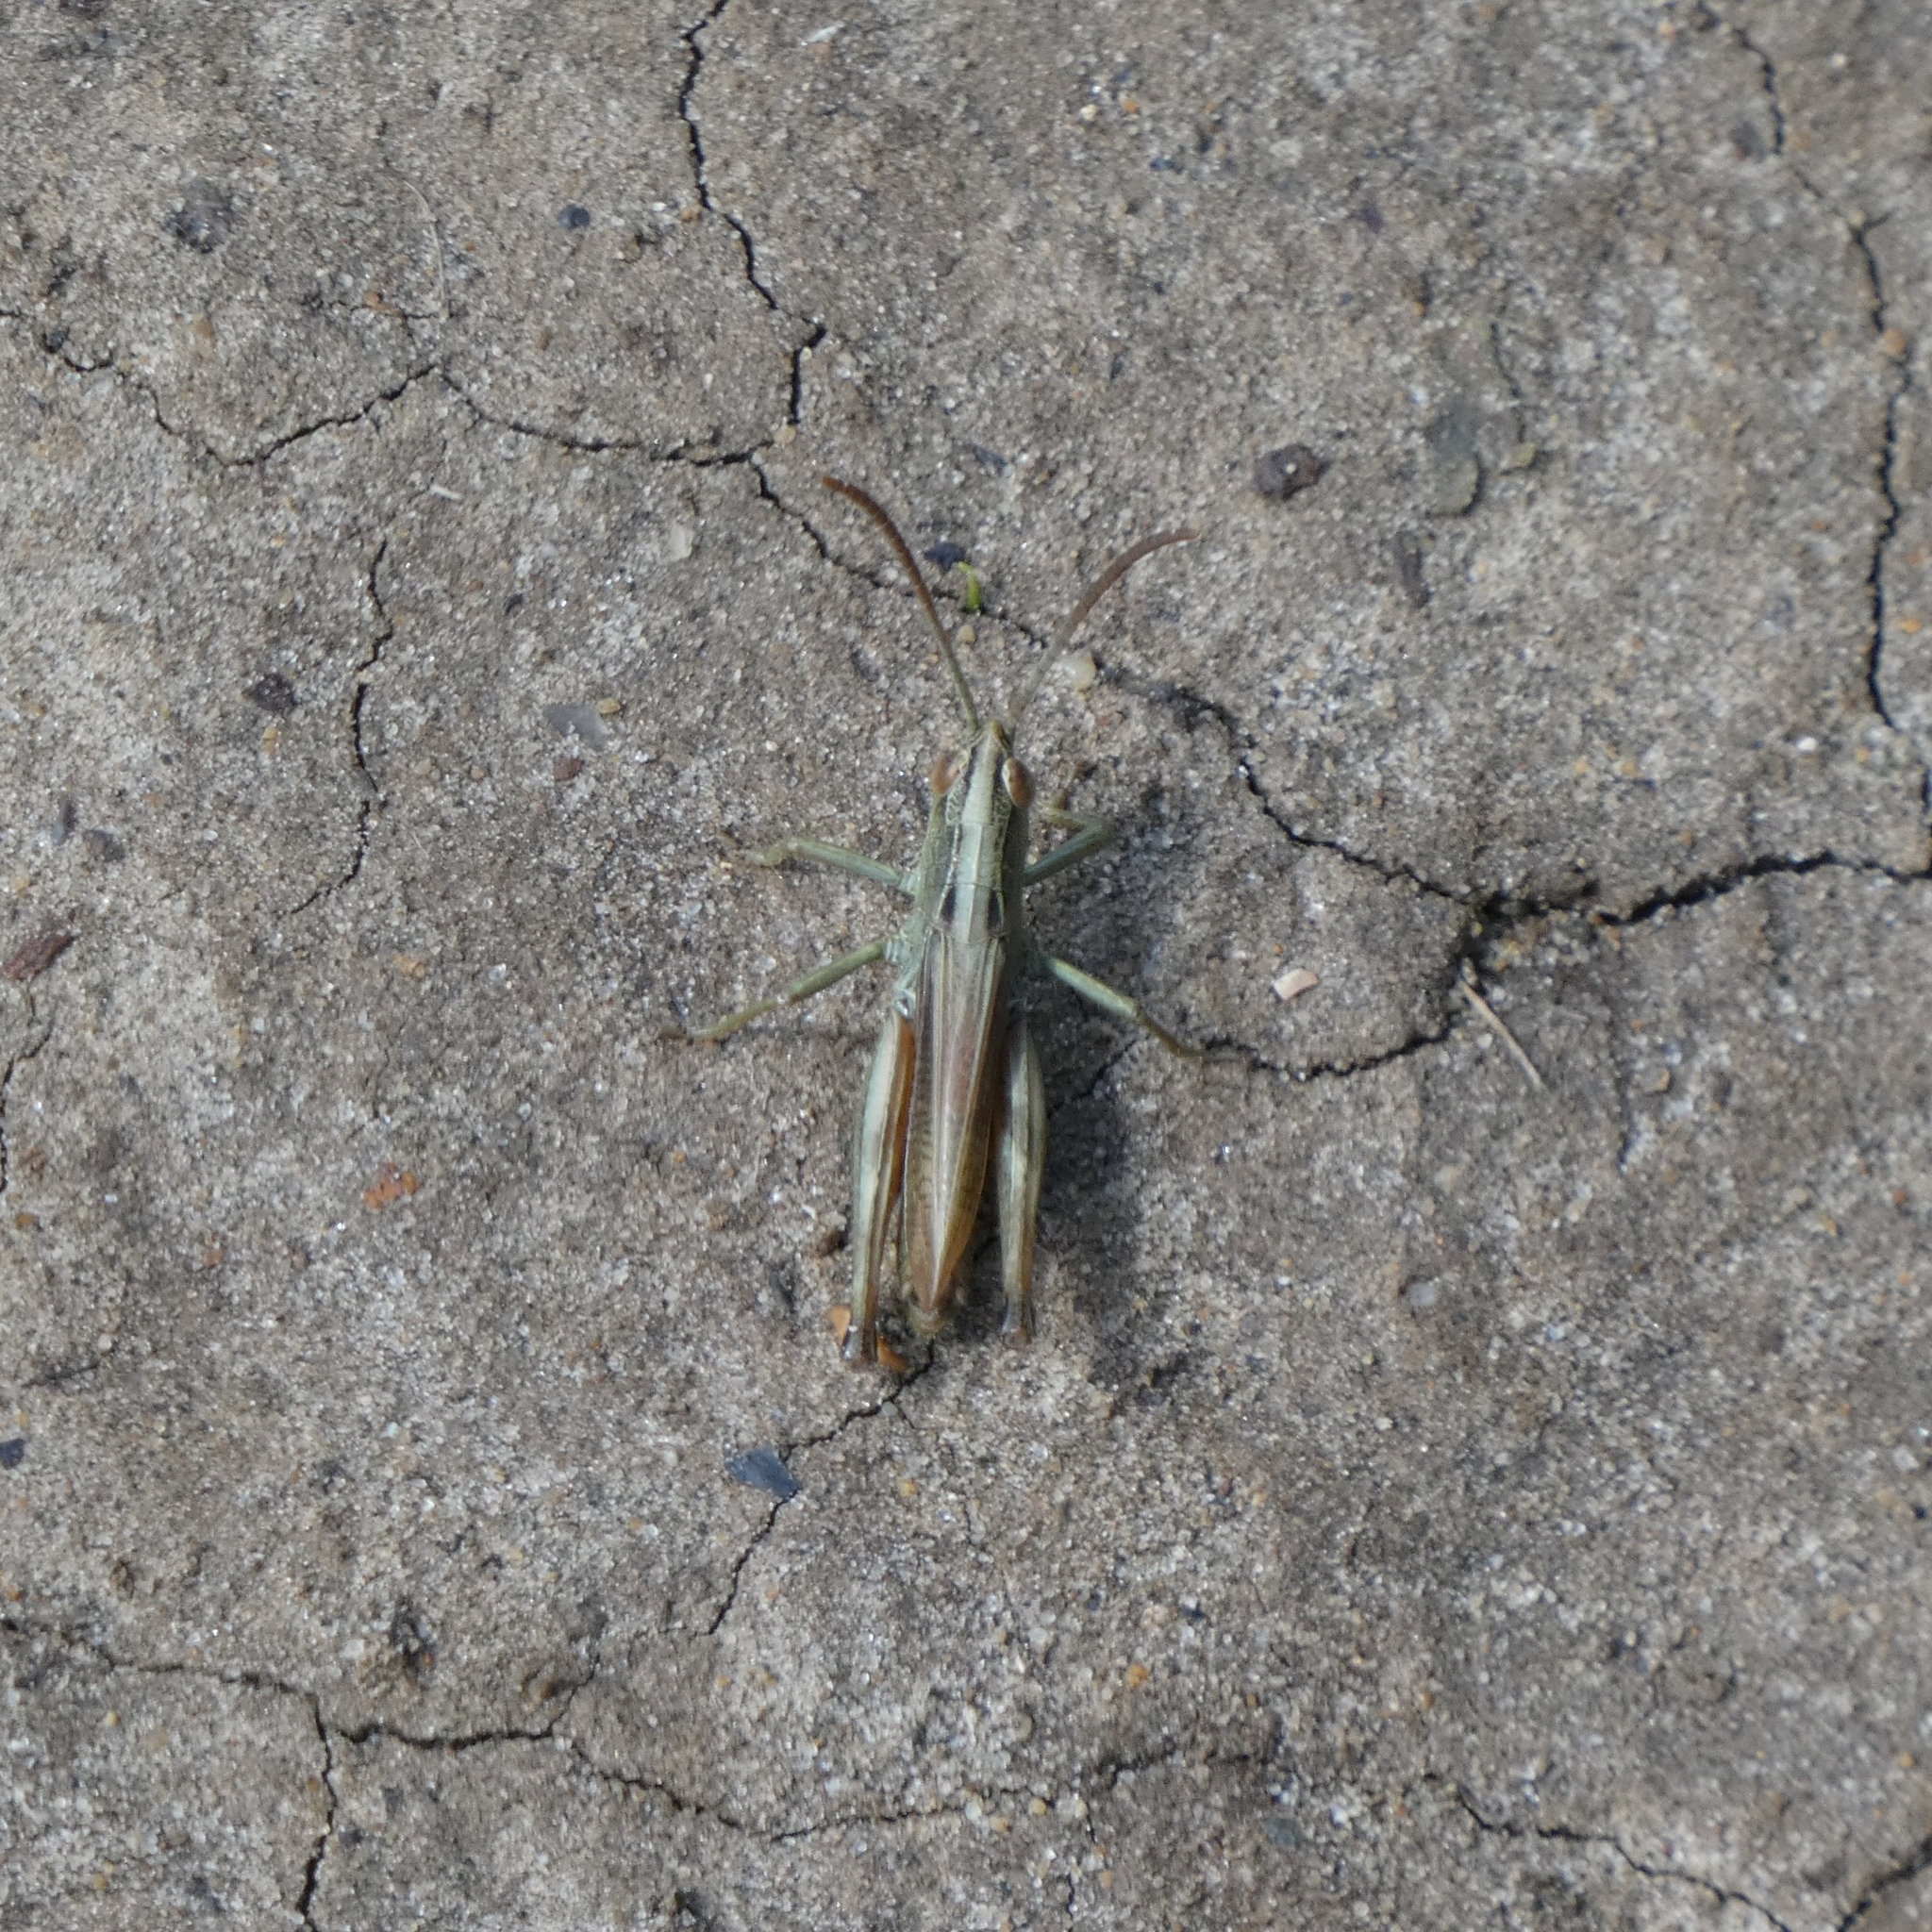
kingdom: Animalia
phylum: Arthropoda
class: Insecta
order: Orthoptera
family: Acrididae
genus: Pseudochorthippus
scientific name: Pseudochorthippus parallelus
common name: Meadow grasshopper
